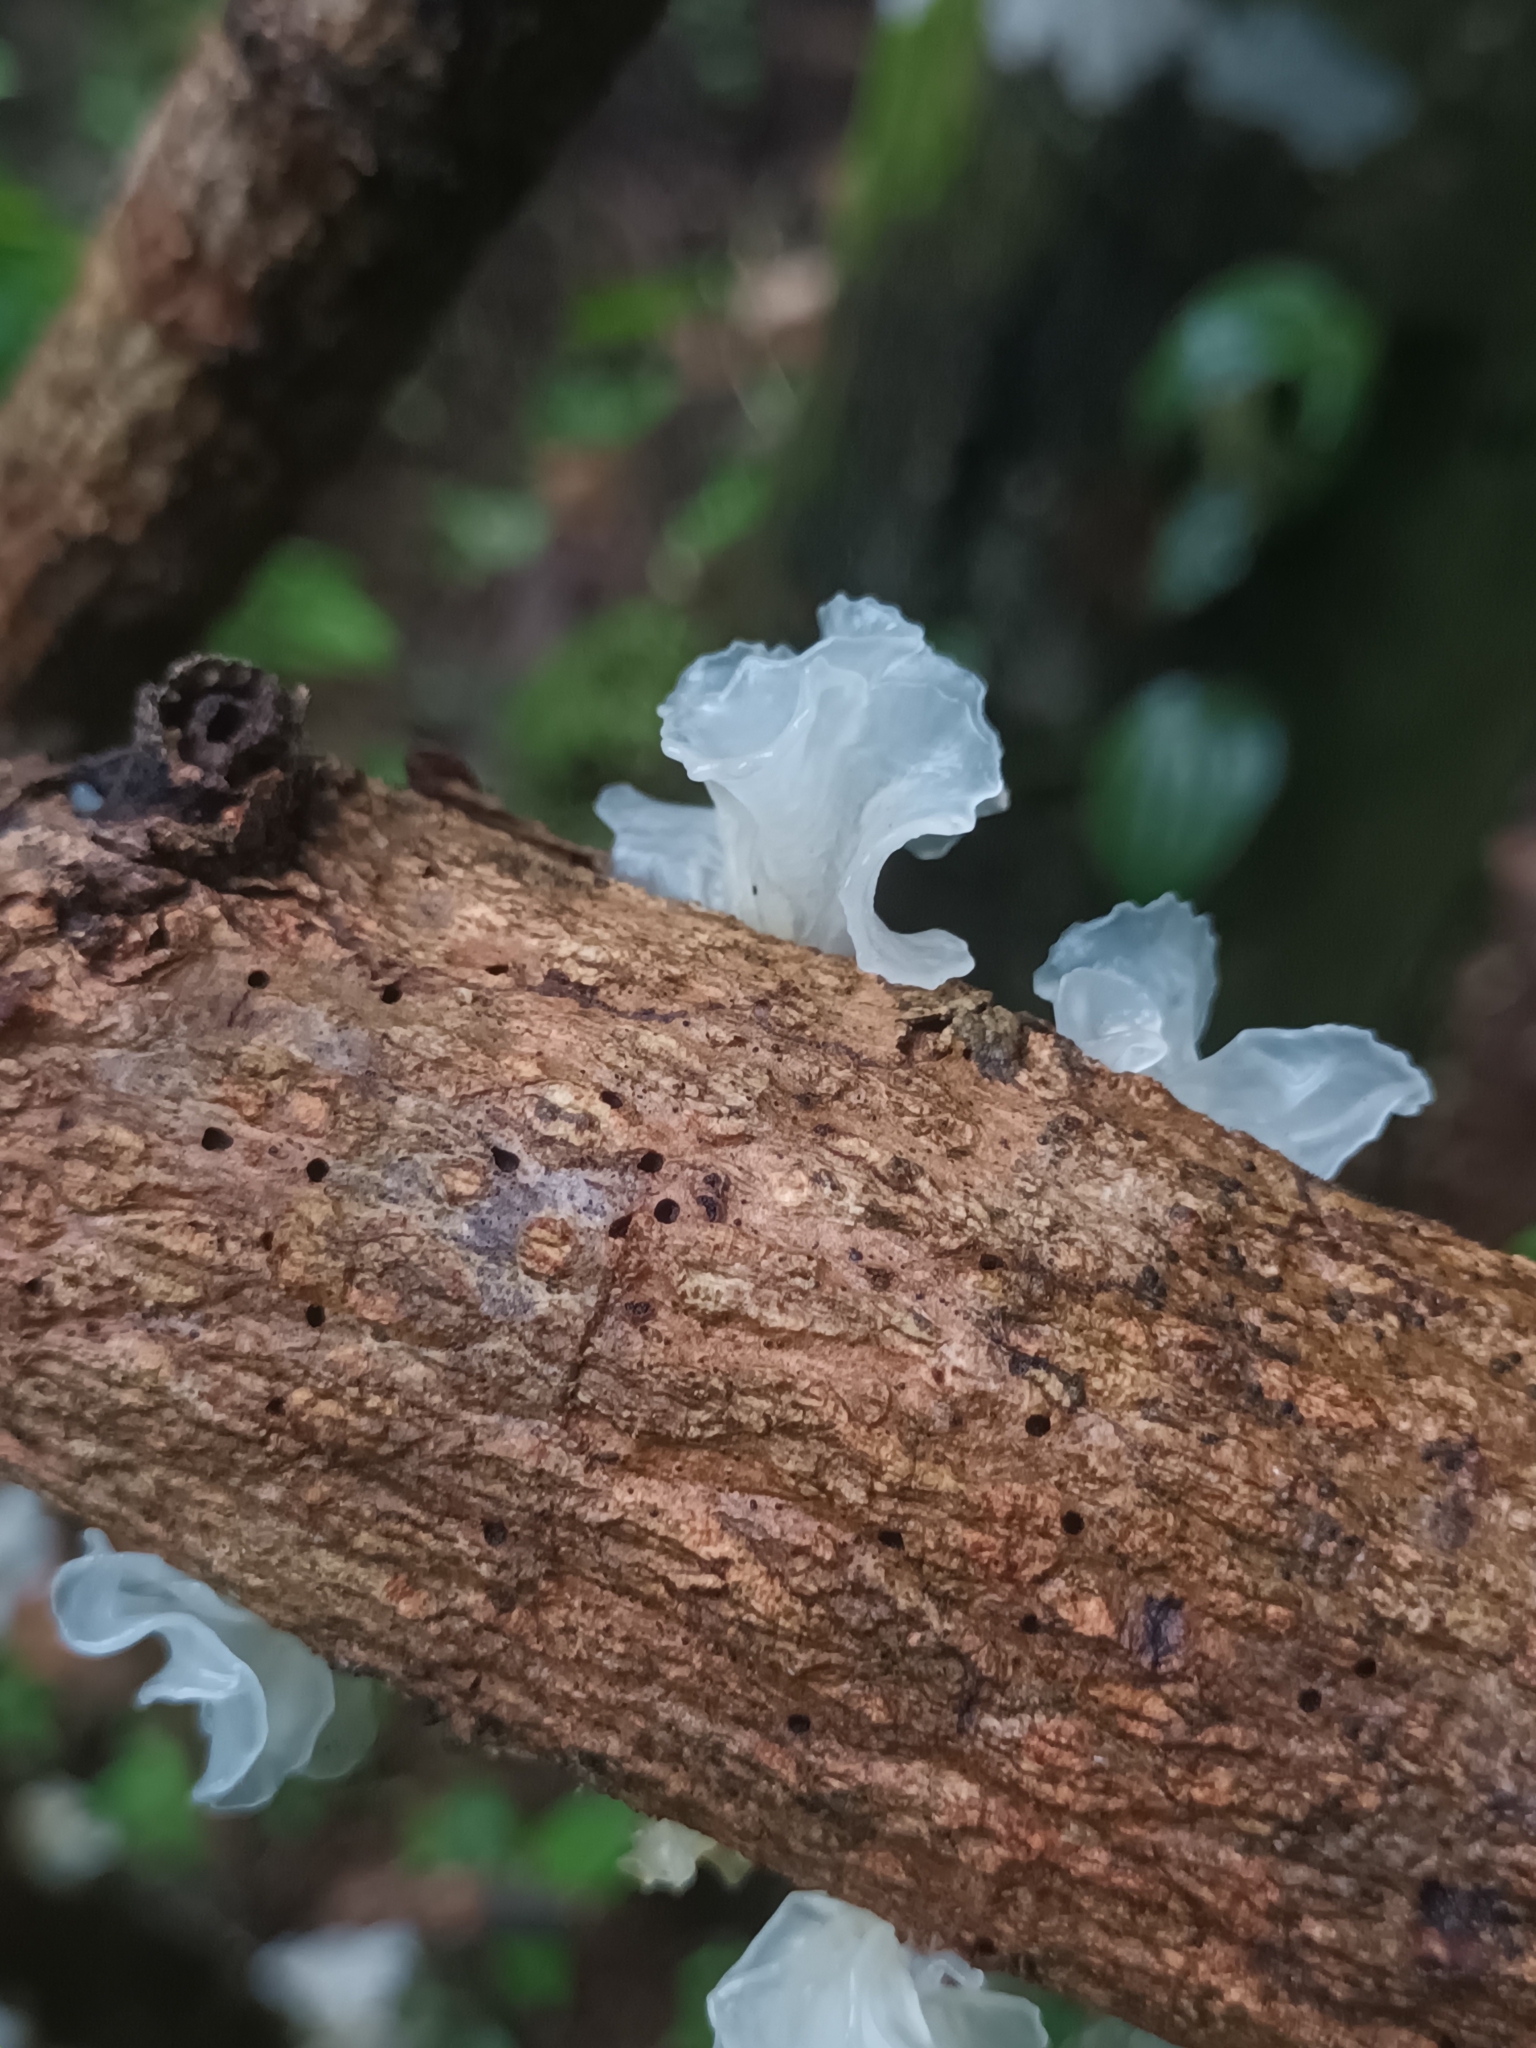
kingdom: Fungi
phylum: Basidiomycota
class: Tremellomycetes
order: Tremellales
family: Tremellaceae
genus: Tremella
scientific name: Tremella fuciformis
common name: Snow fungus
